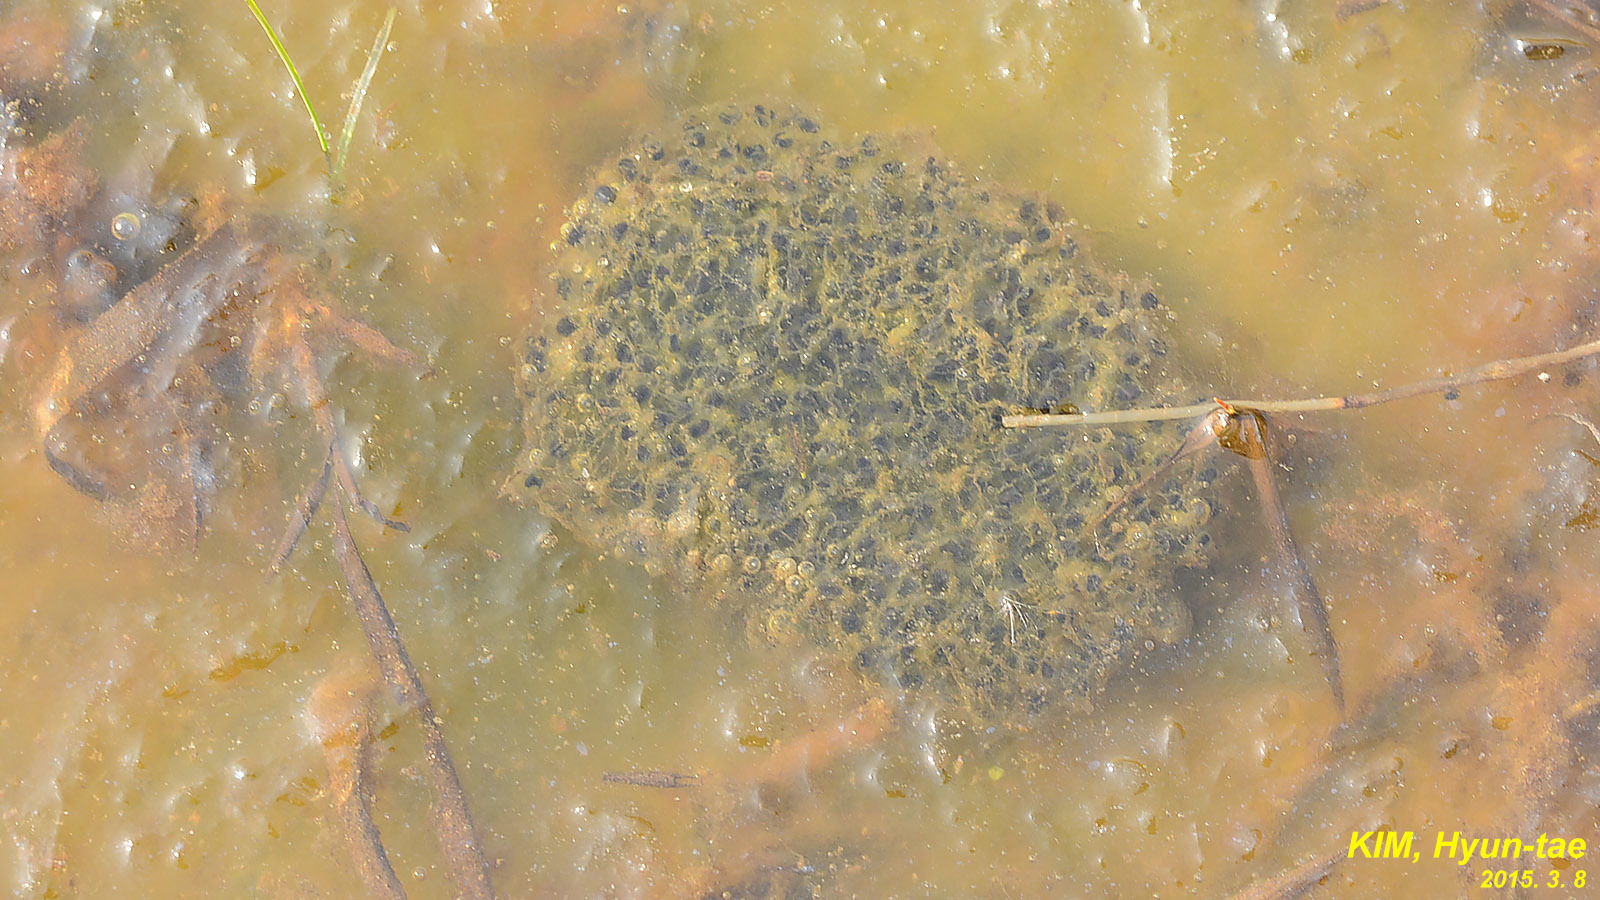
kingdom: Animalia
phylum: Chordata
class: Amphibia
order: Anura
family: Ranidae
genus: Rana
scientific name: Rana coreana
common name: Korean brown frog
